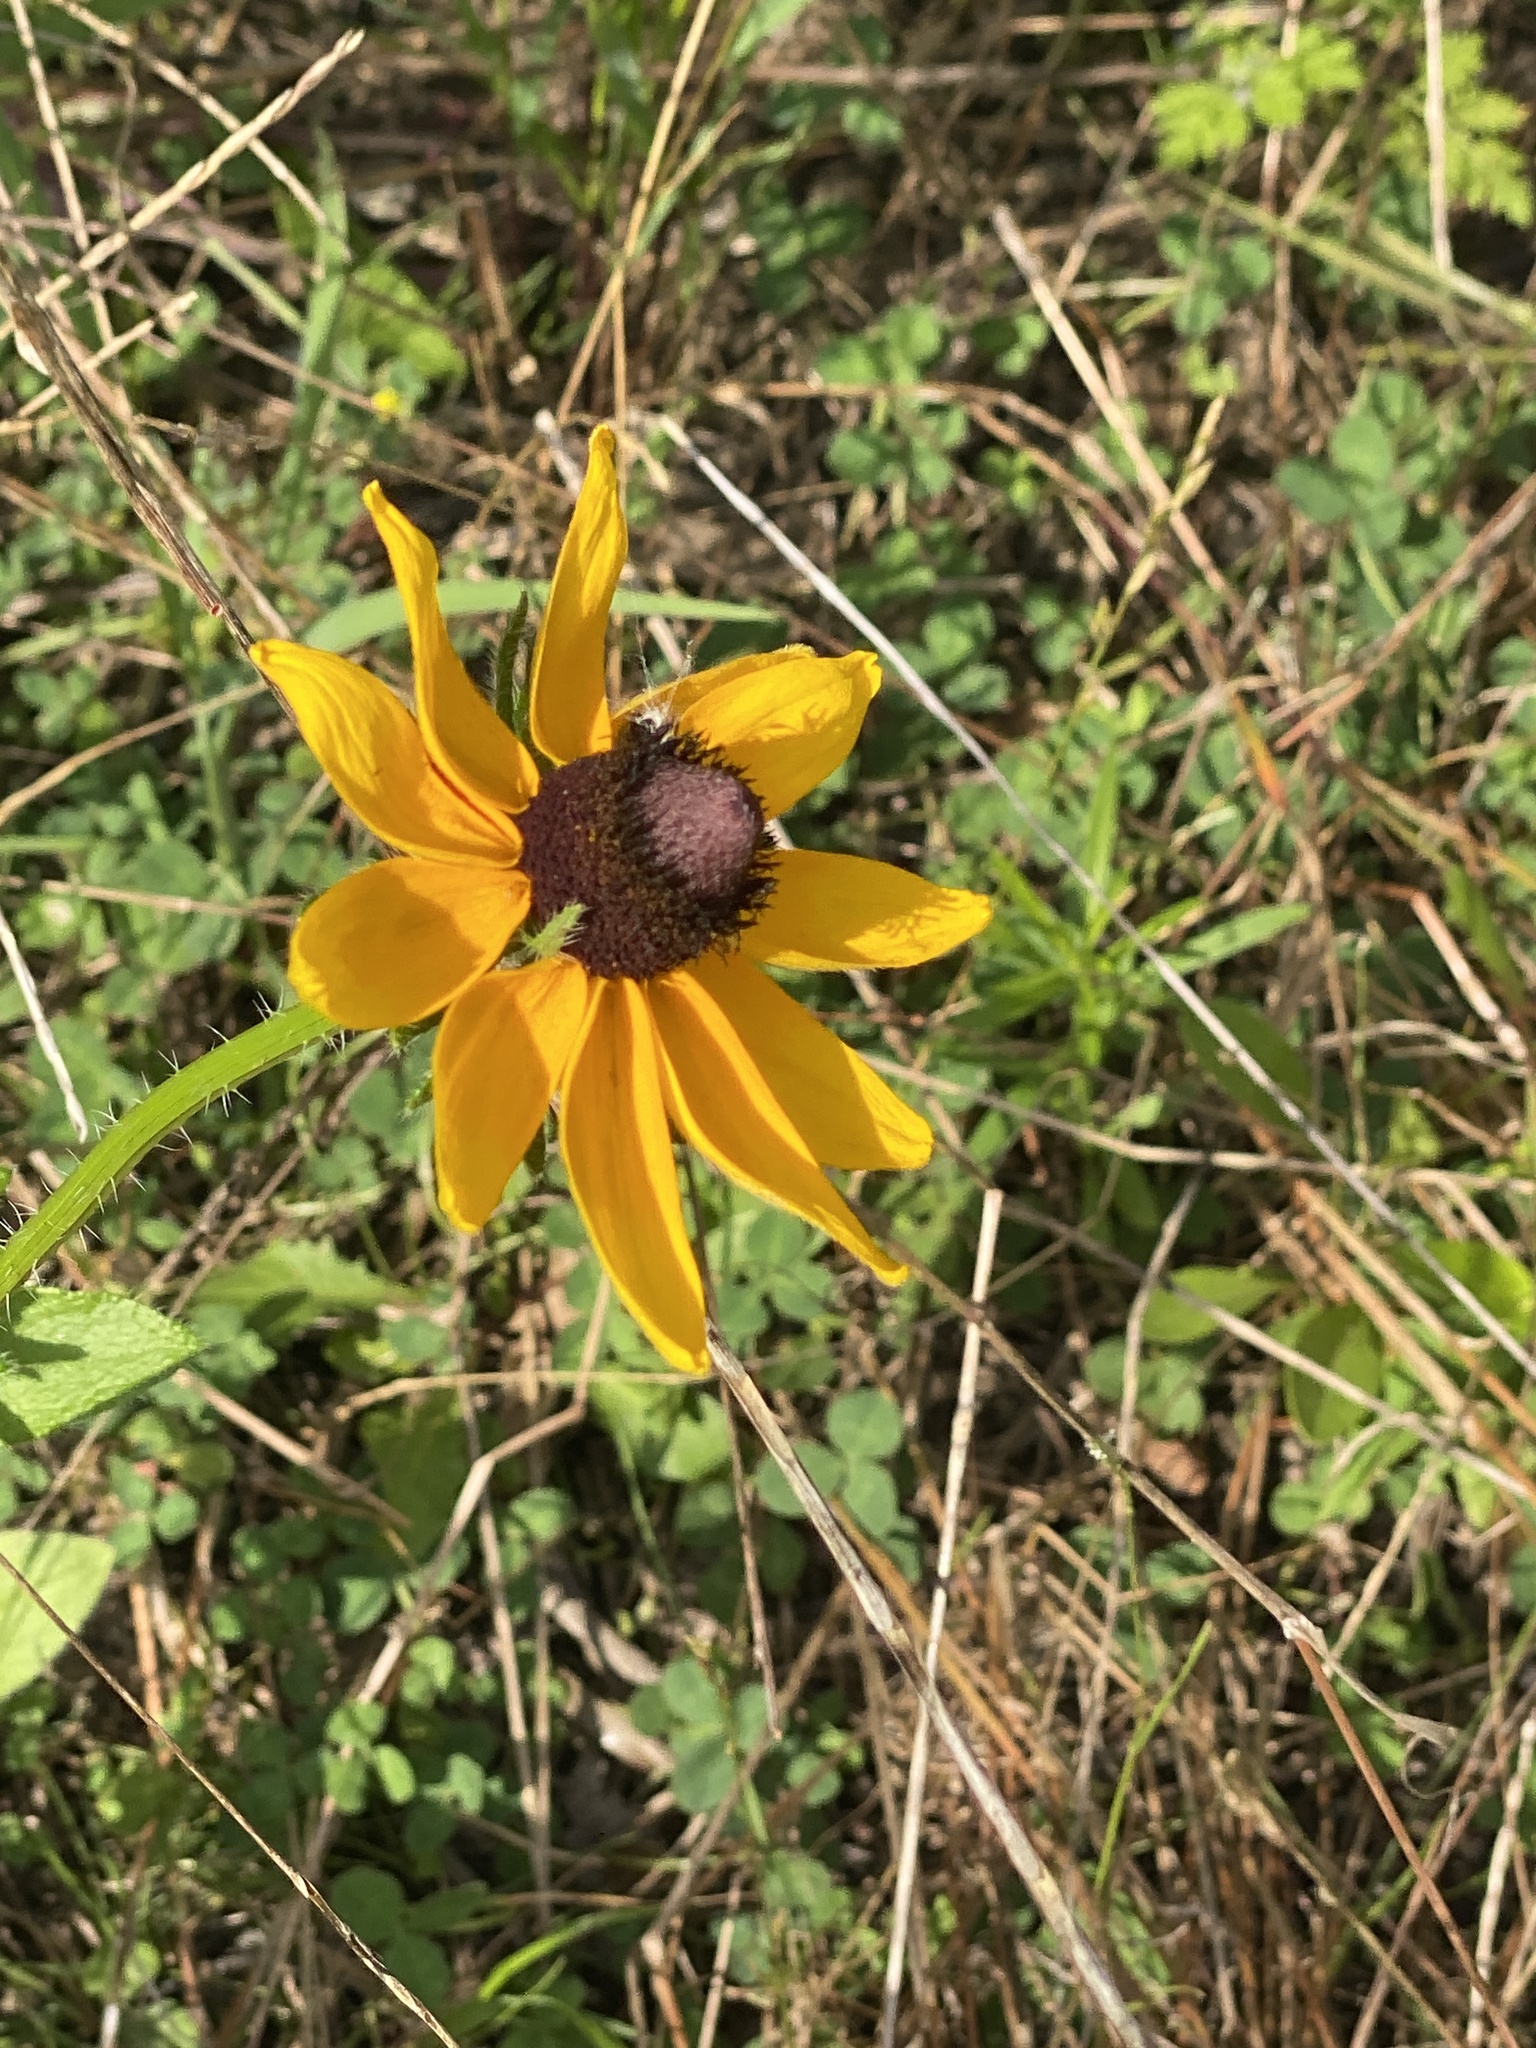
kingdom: Plantae
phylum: Tracheophyta
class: Magnoliopsida
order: Asterales
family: Asteraceae
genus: Rudbeckia
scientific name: Rudbeckia hirta
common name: Black-eyed-susan
